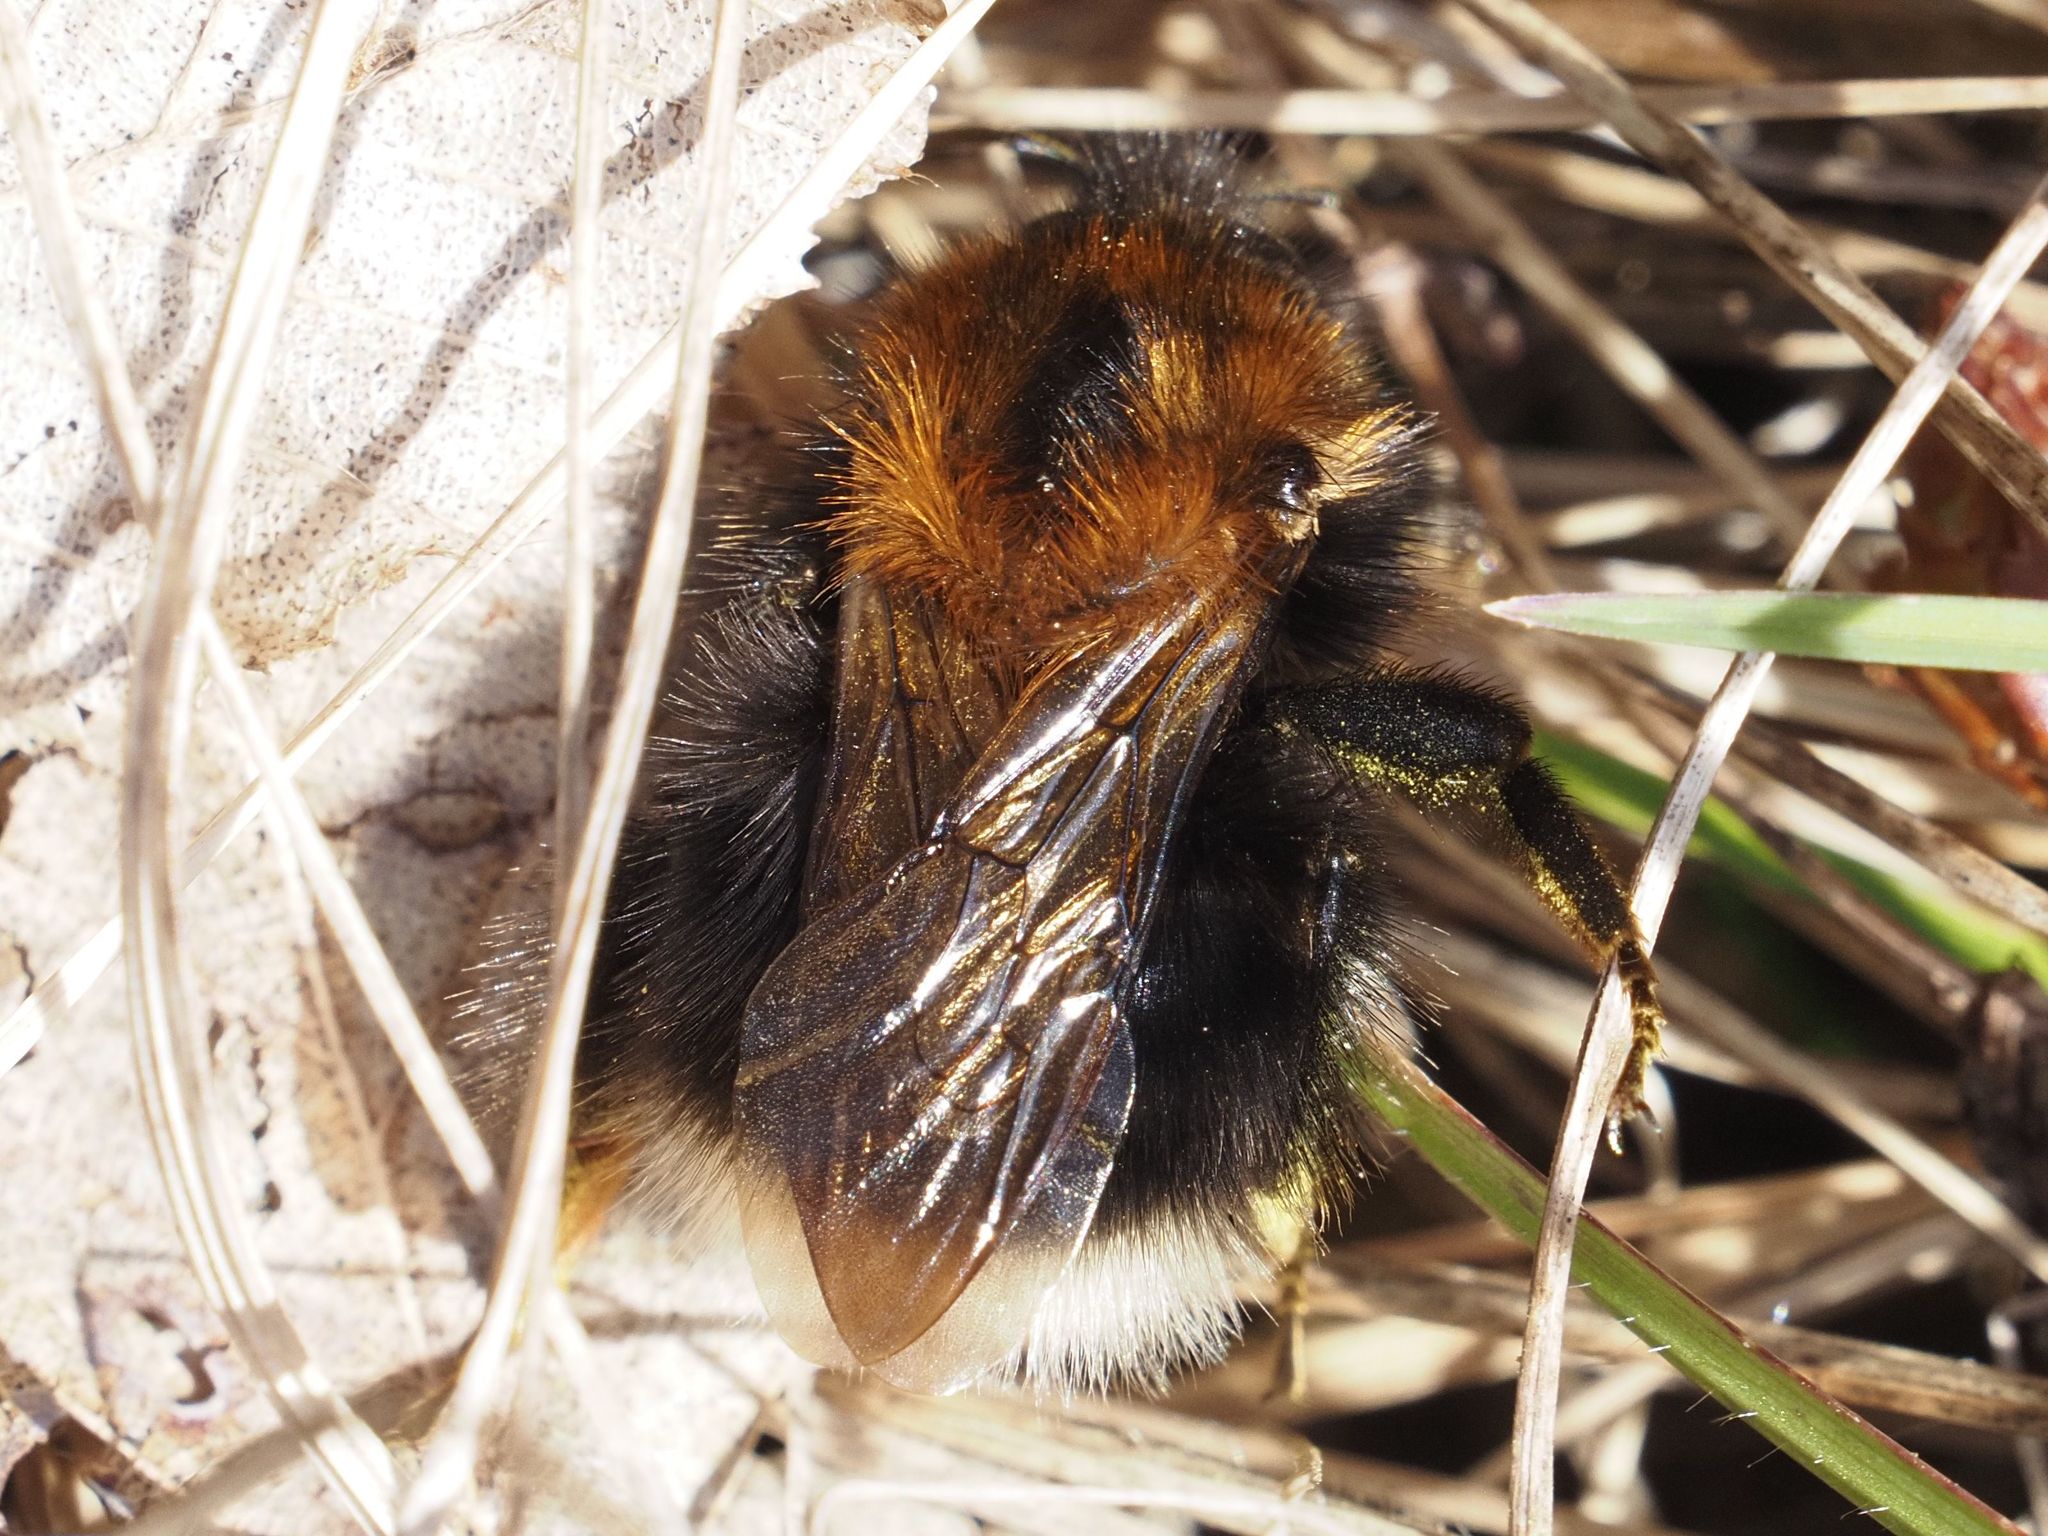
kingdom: Animalia
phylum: Arthropoda
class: Insecta
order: Hymenoptera
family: Apidae
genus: Bombus
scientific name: Bombus hypnorum
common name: New garden bumblebee
